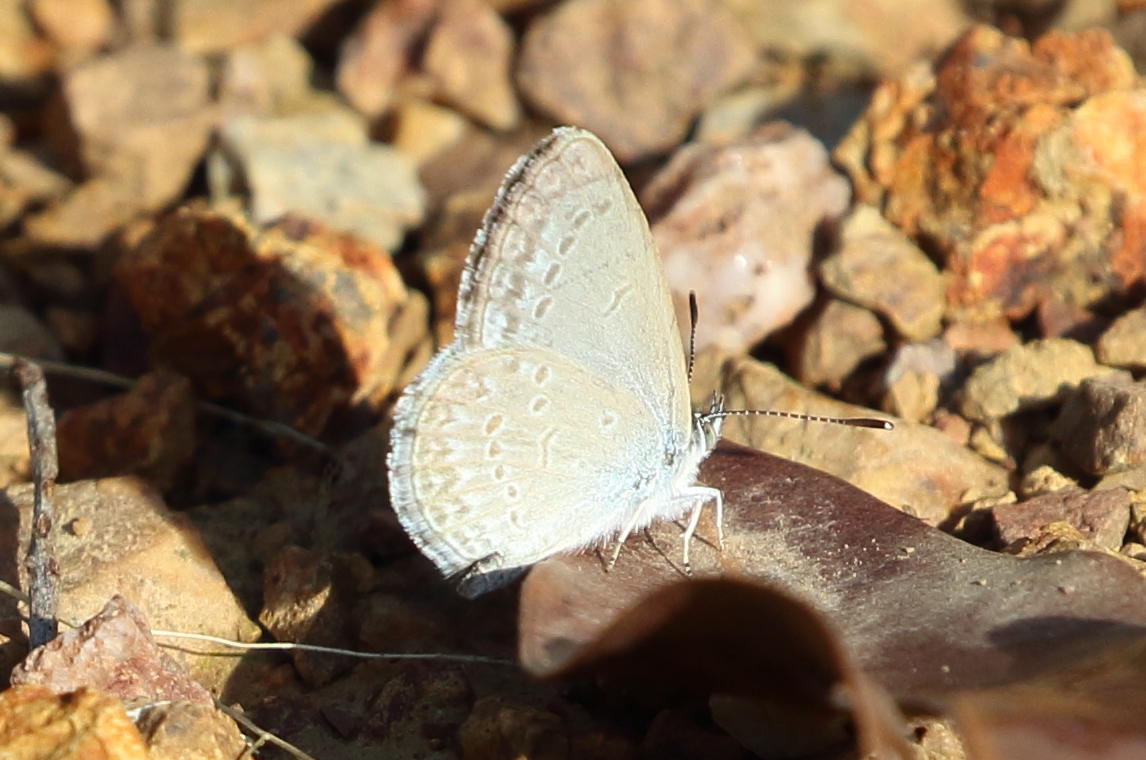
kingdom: Animalia
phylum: Arthropoda
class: Insecta
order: Lepidoptera
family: Lycaenidae
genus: Zizina
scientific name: Zizina labradus
